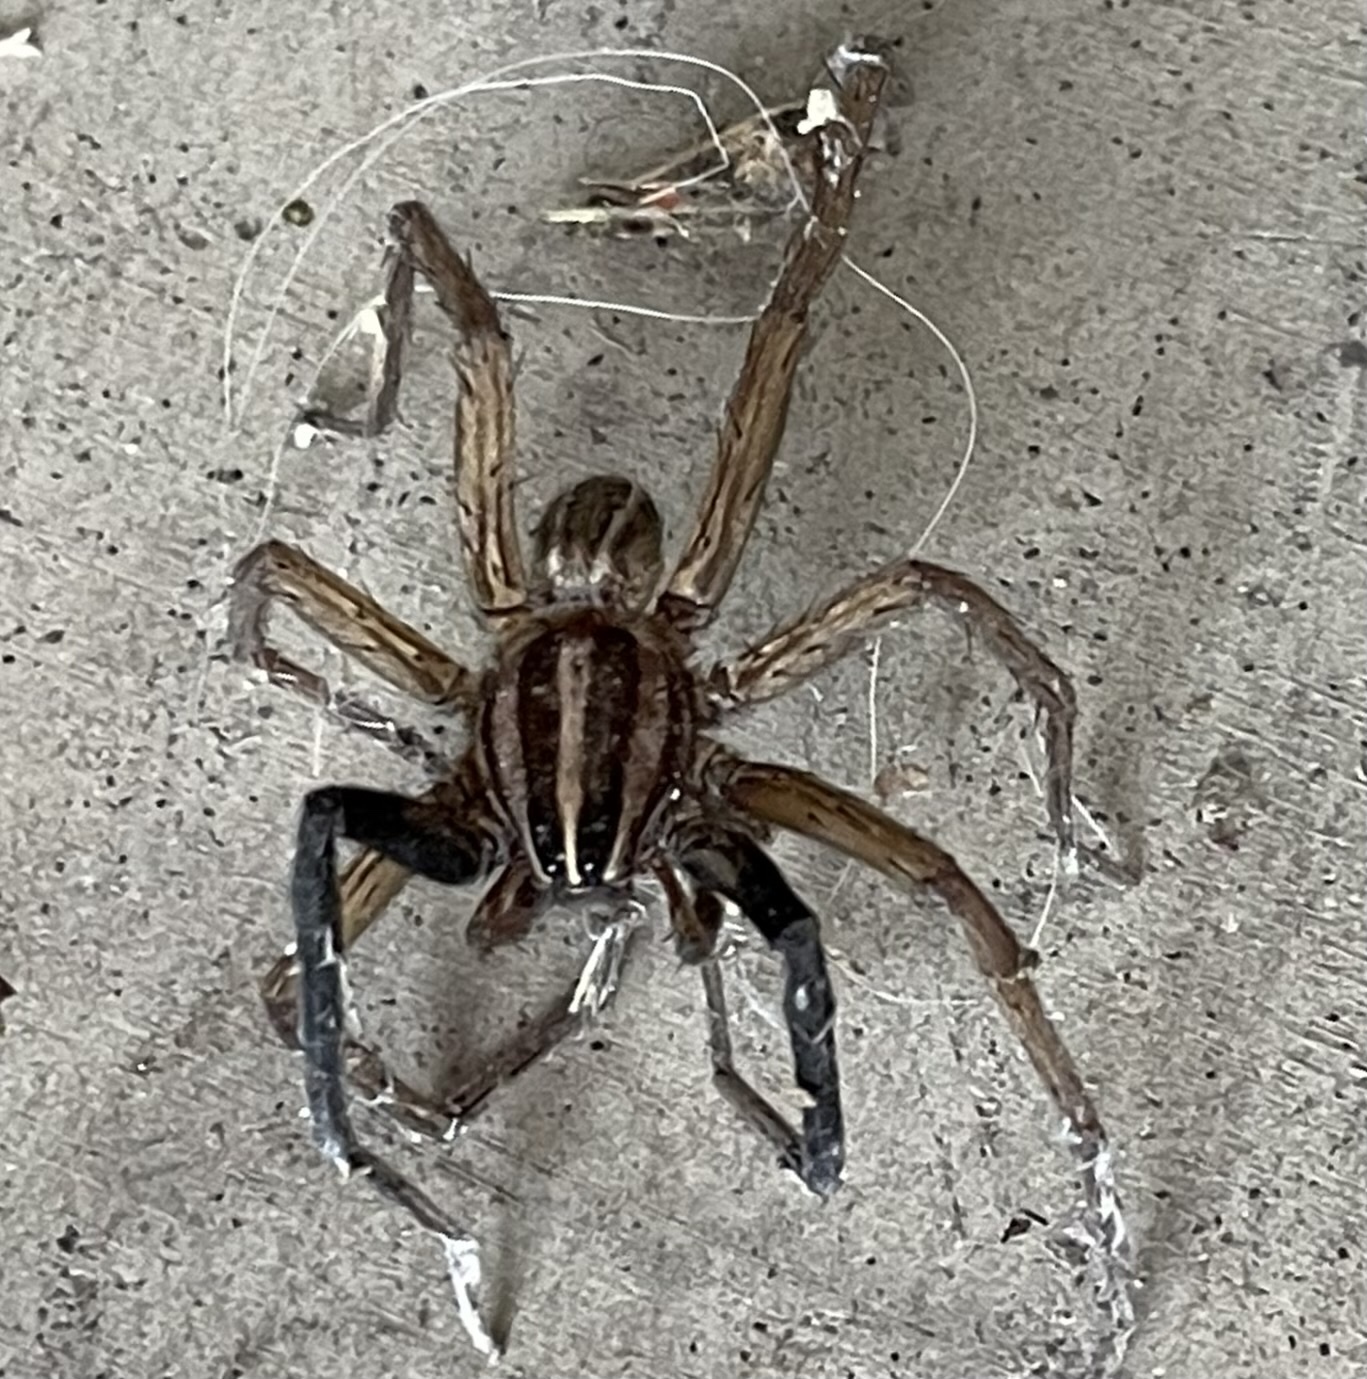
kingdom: Animalia
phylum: Arthropoda
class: Arachnida
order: Araneae
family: Lycosidae
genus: Rabidosa
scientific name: Rabidosa rabida
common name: Rabid wolf spider
